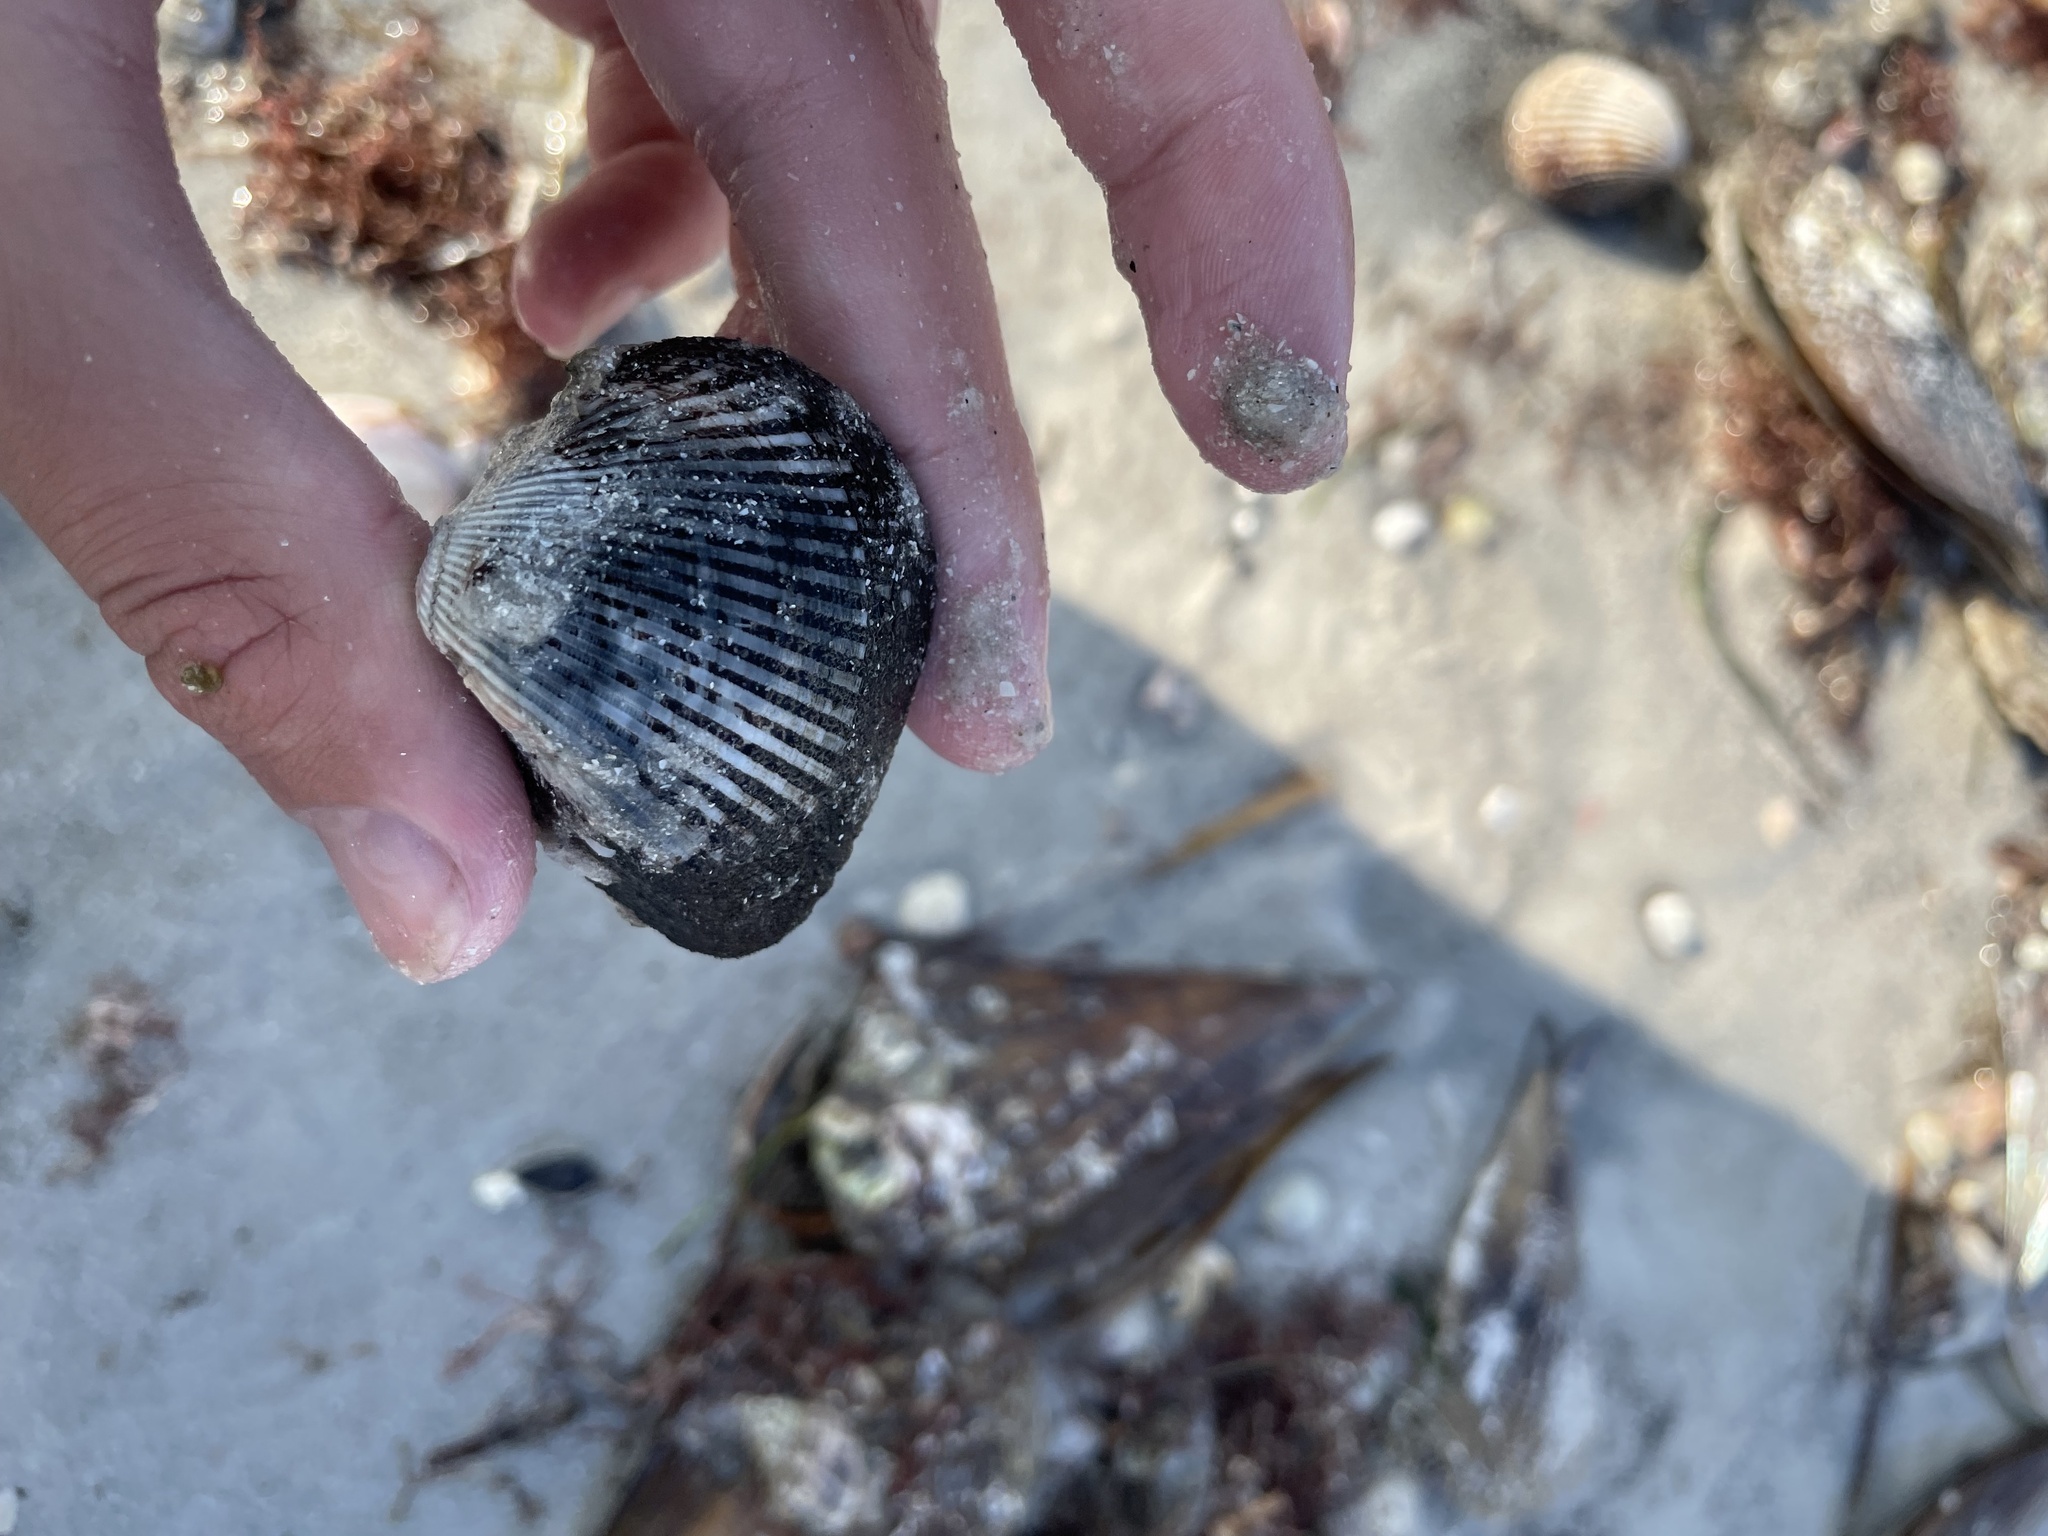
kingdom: Animalia
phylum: Mollusca
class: Bivalvia
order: Arcida
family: Noetiidae
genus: Noetia
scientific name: Noetia ponderosa
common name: Ponderous ark
